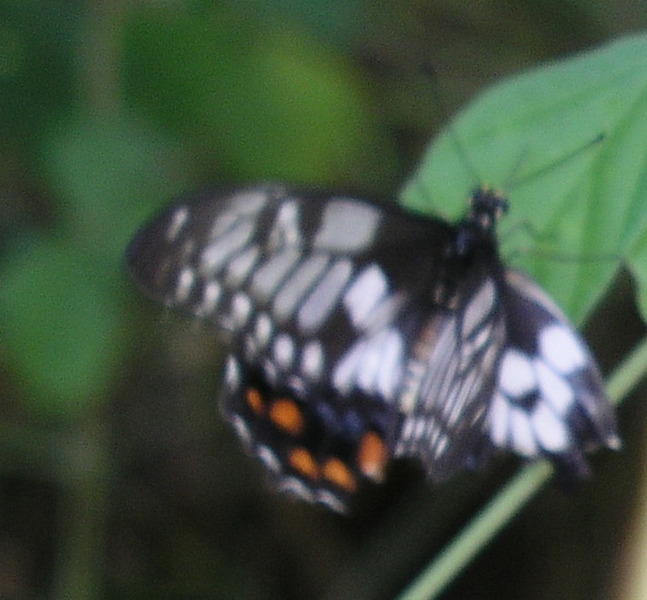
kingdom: Animalia
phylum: Arthropoda
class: Insecta
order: Lepidoptera
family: Papilionidae
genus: Papilio
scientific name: Papilio anactus
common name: Dingy swallowtail
